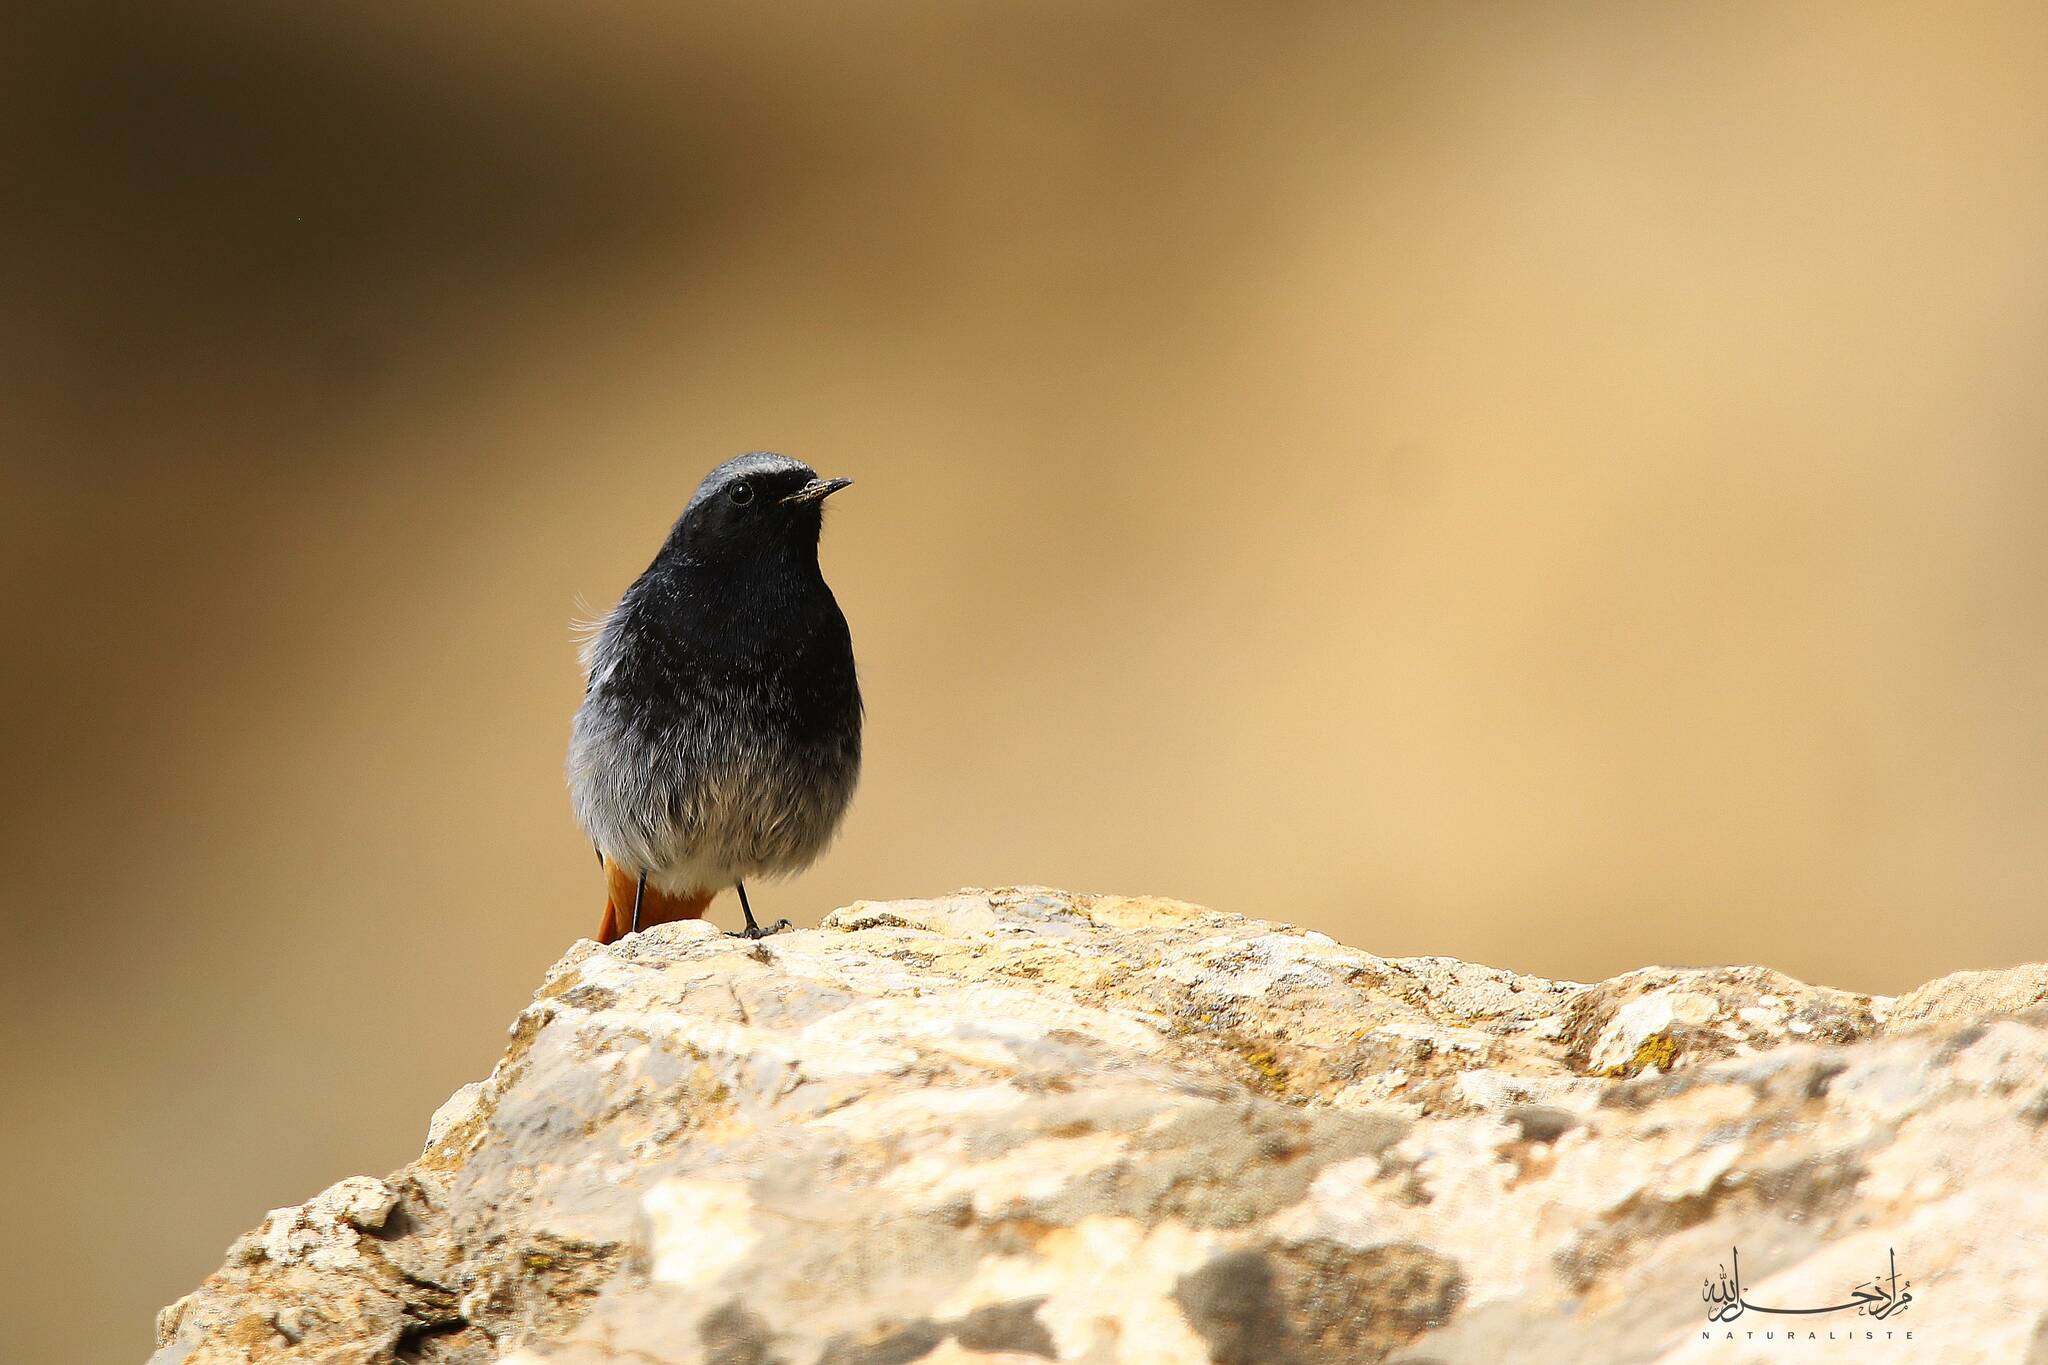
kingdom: Animalia
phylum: Chordata
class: Aves
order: Passeriformes
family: Muscicapidae
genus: Phoenicurus
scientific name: Phoenicurus ochruros
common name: Black redstart
